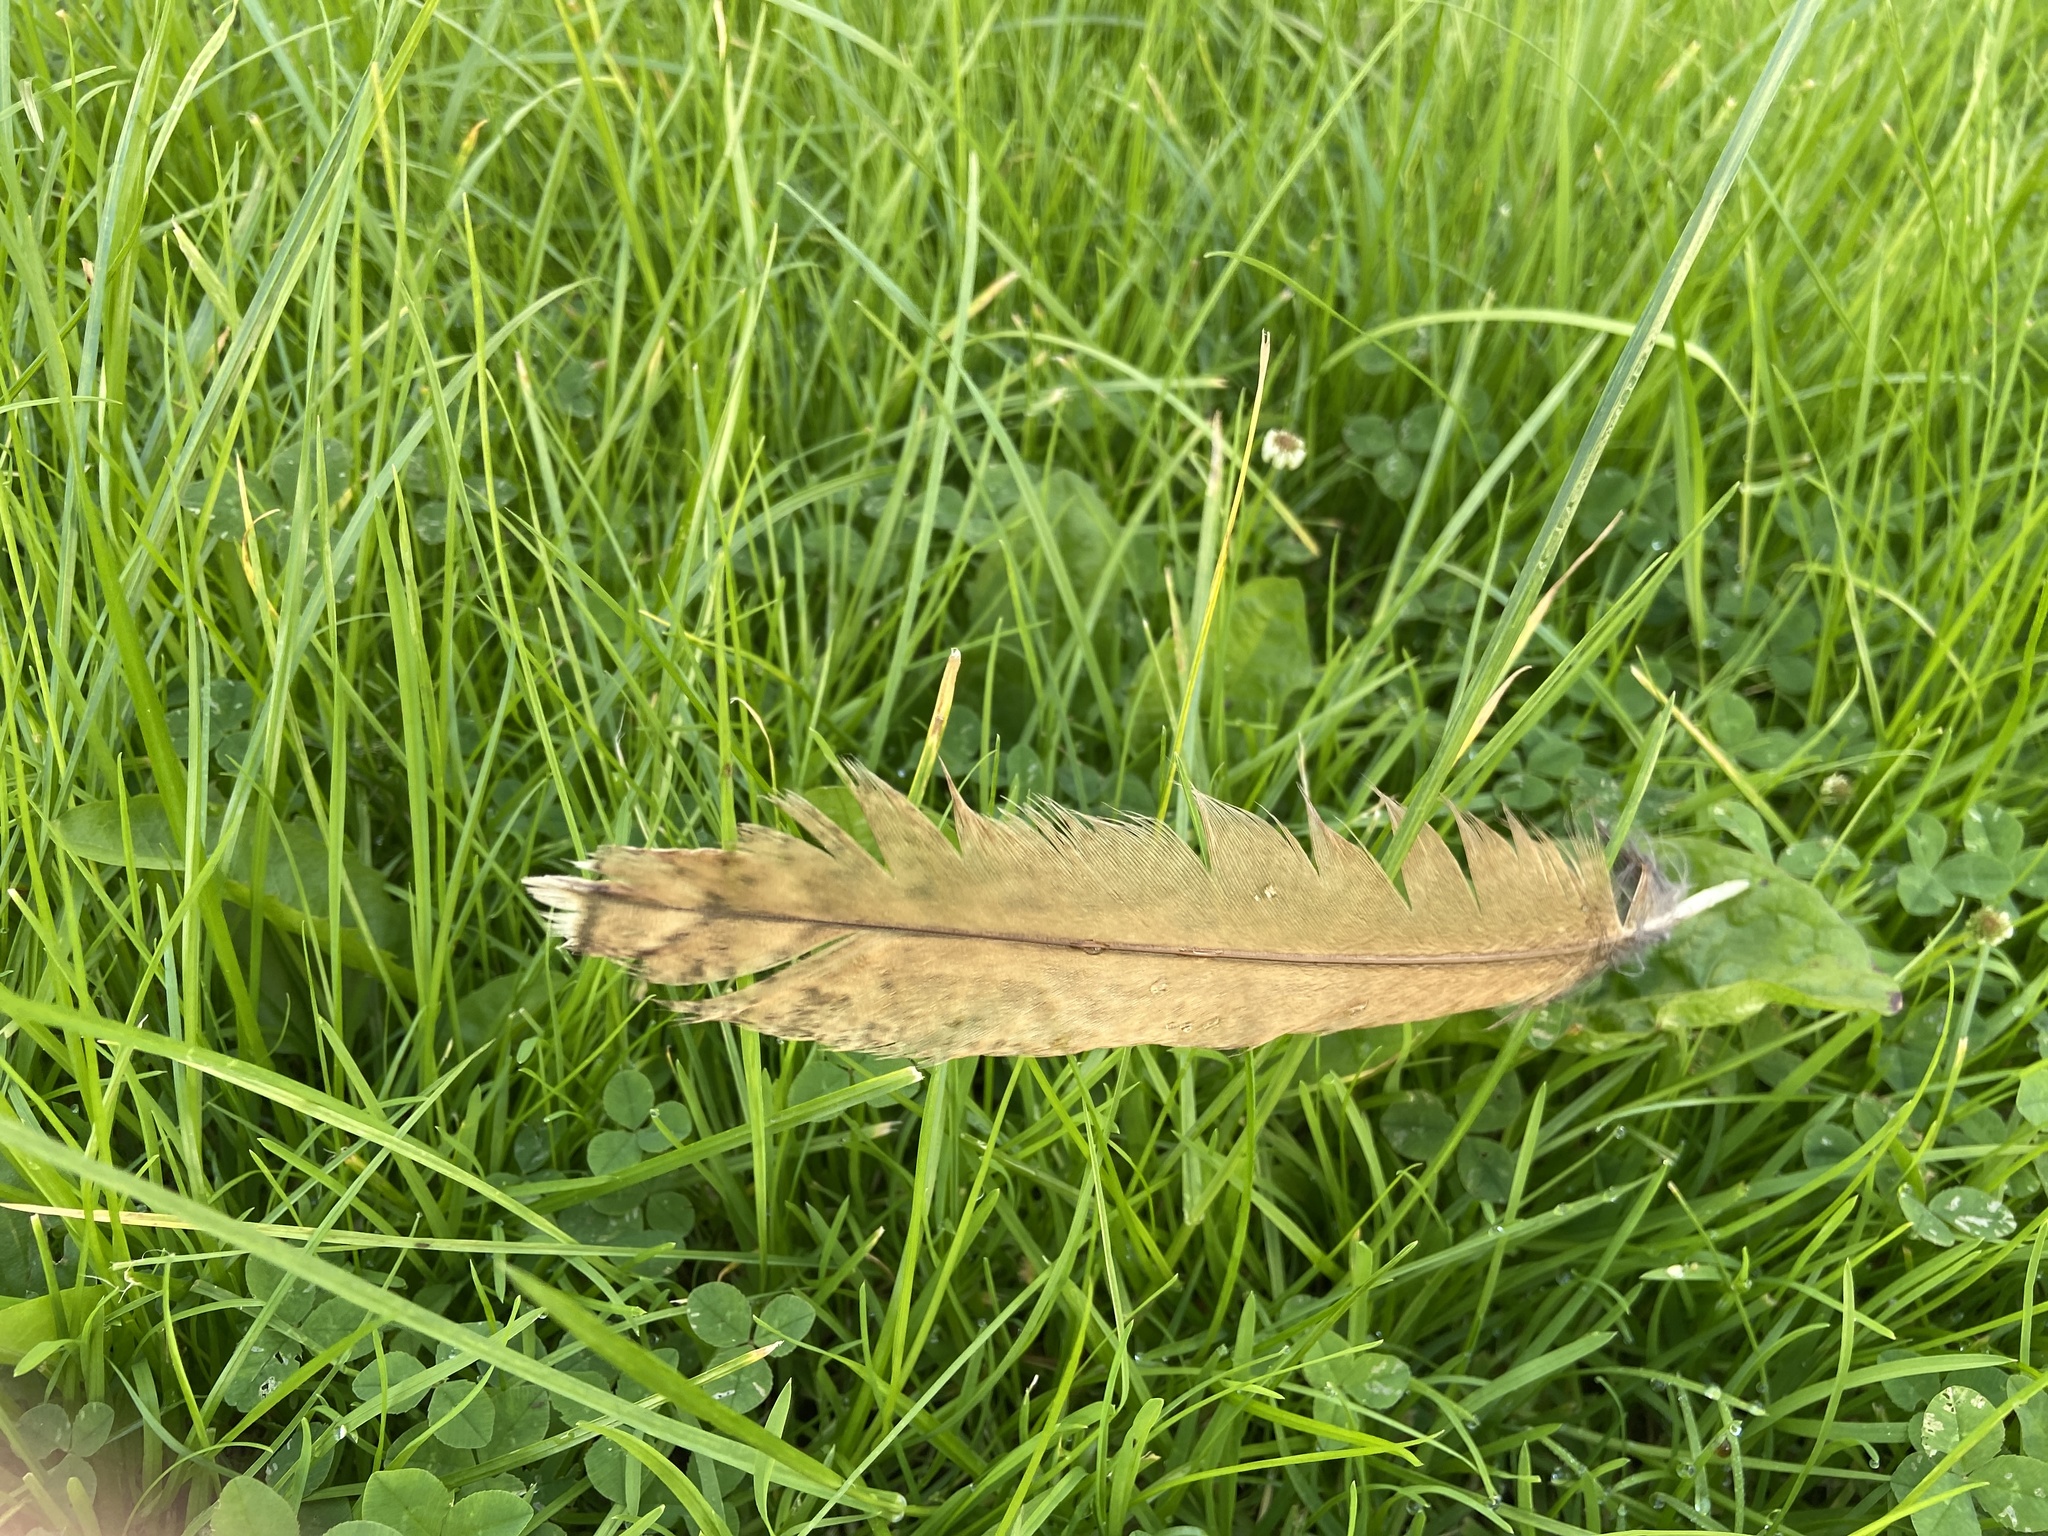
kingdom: Animalia
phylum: Chordata
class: Aves
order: Strigiformes
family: Strigidae
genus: Strix
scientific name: Strix aluco
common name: Tawny owl
